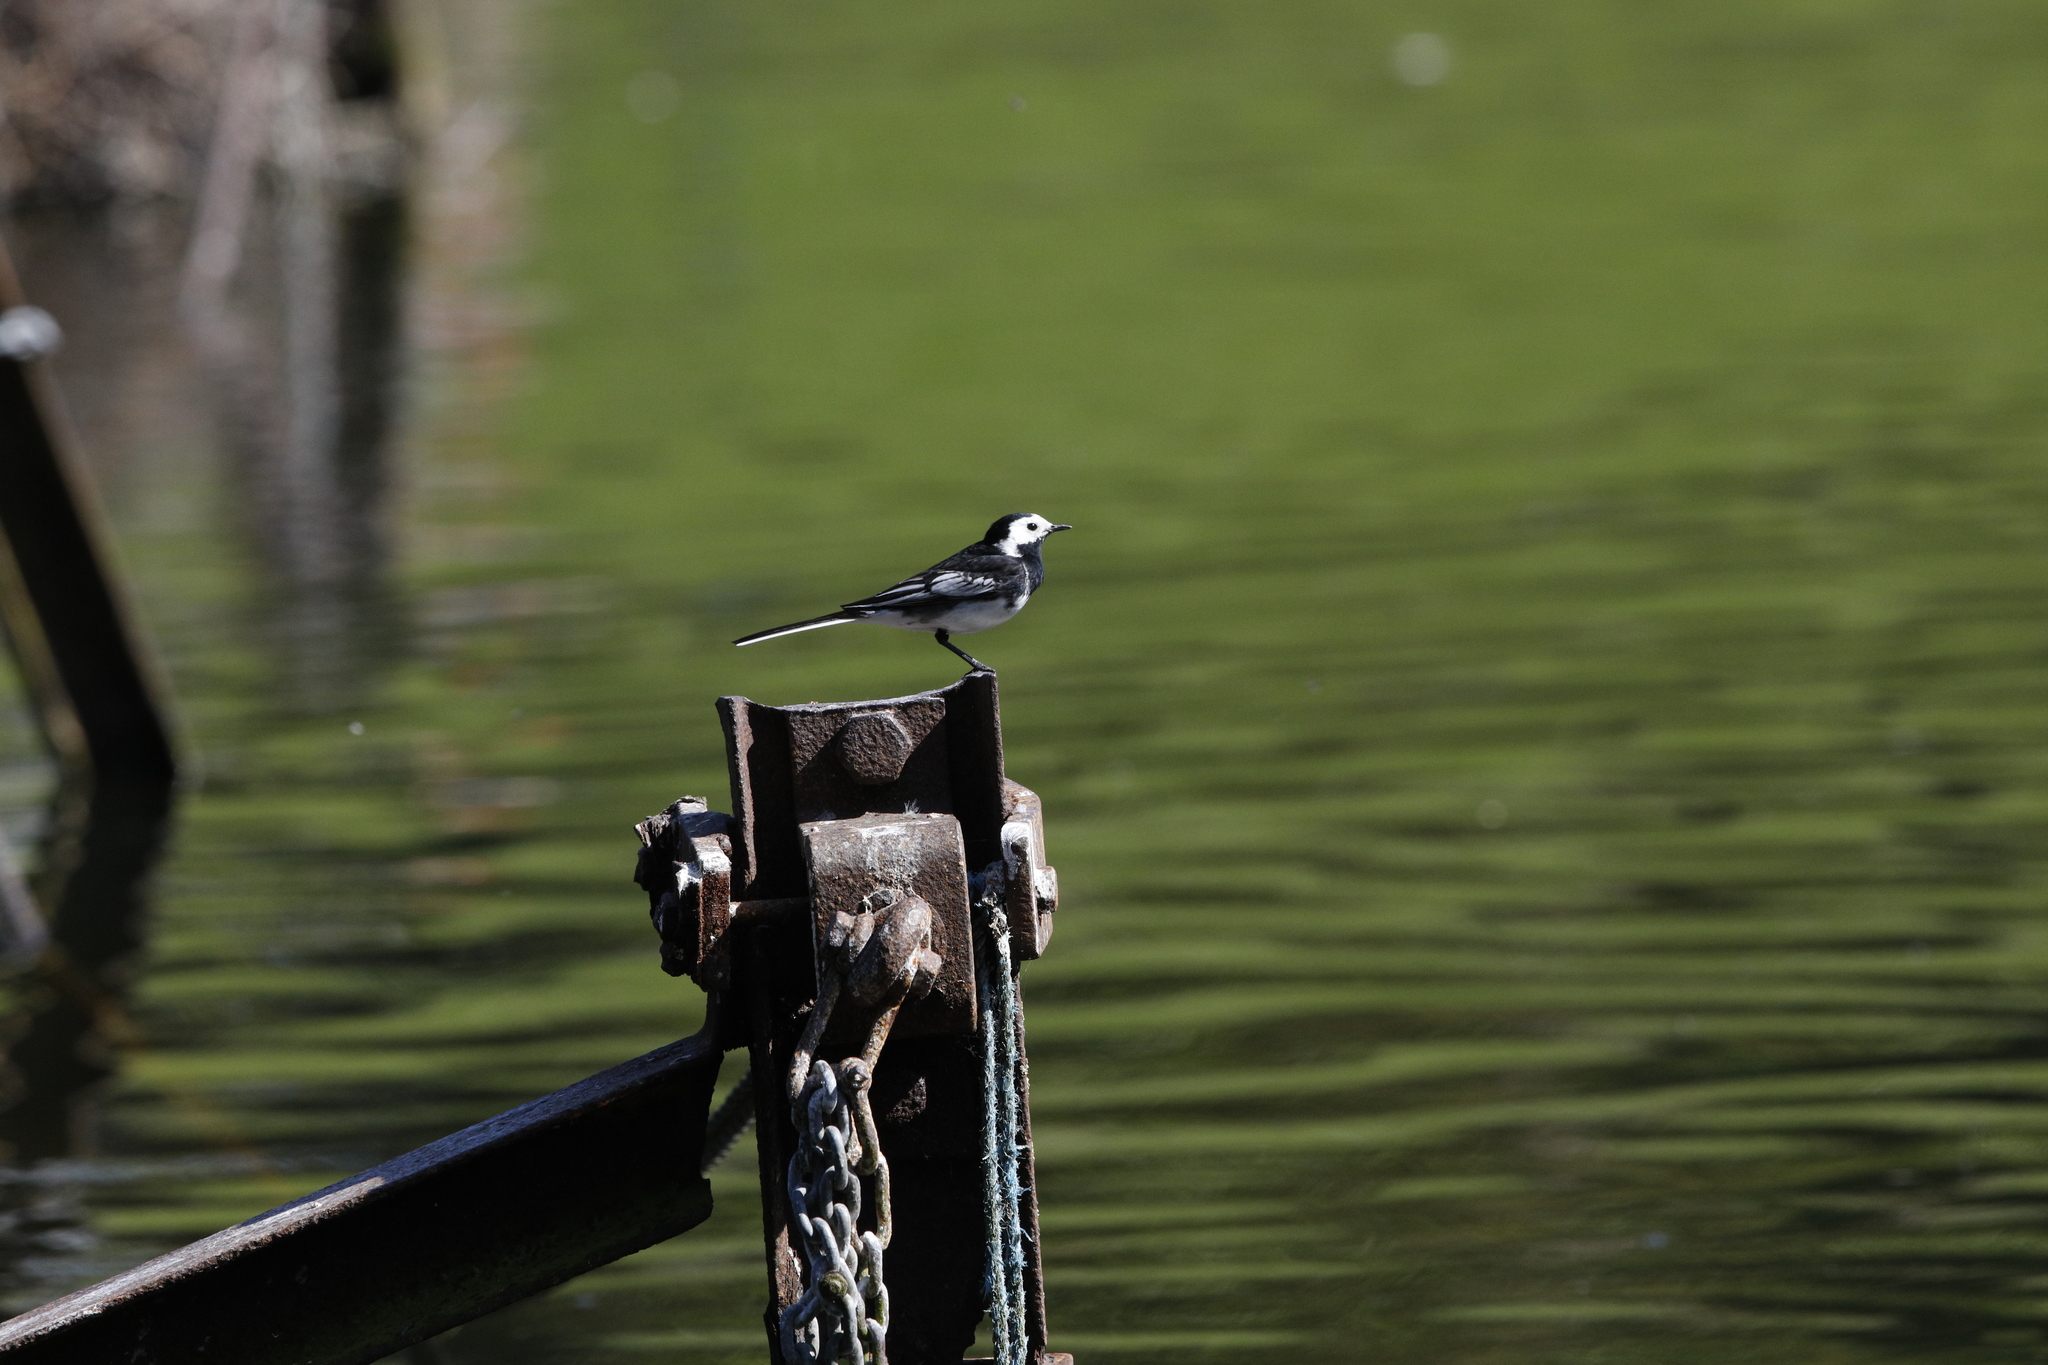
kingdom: Animalia
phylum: Chordata
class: Aves
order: Passeriformes
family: Motacillidae
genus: Motacilla
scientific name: Motacilla alba
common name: White wagtail
